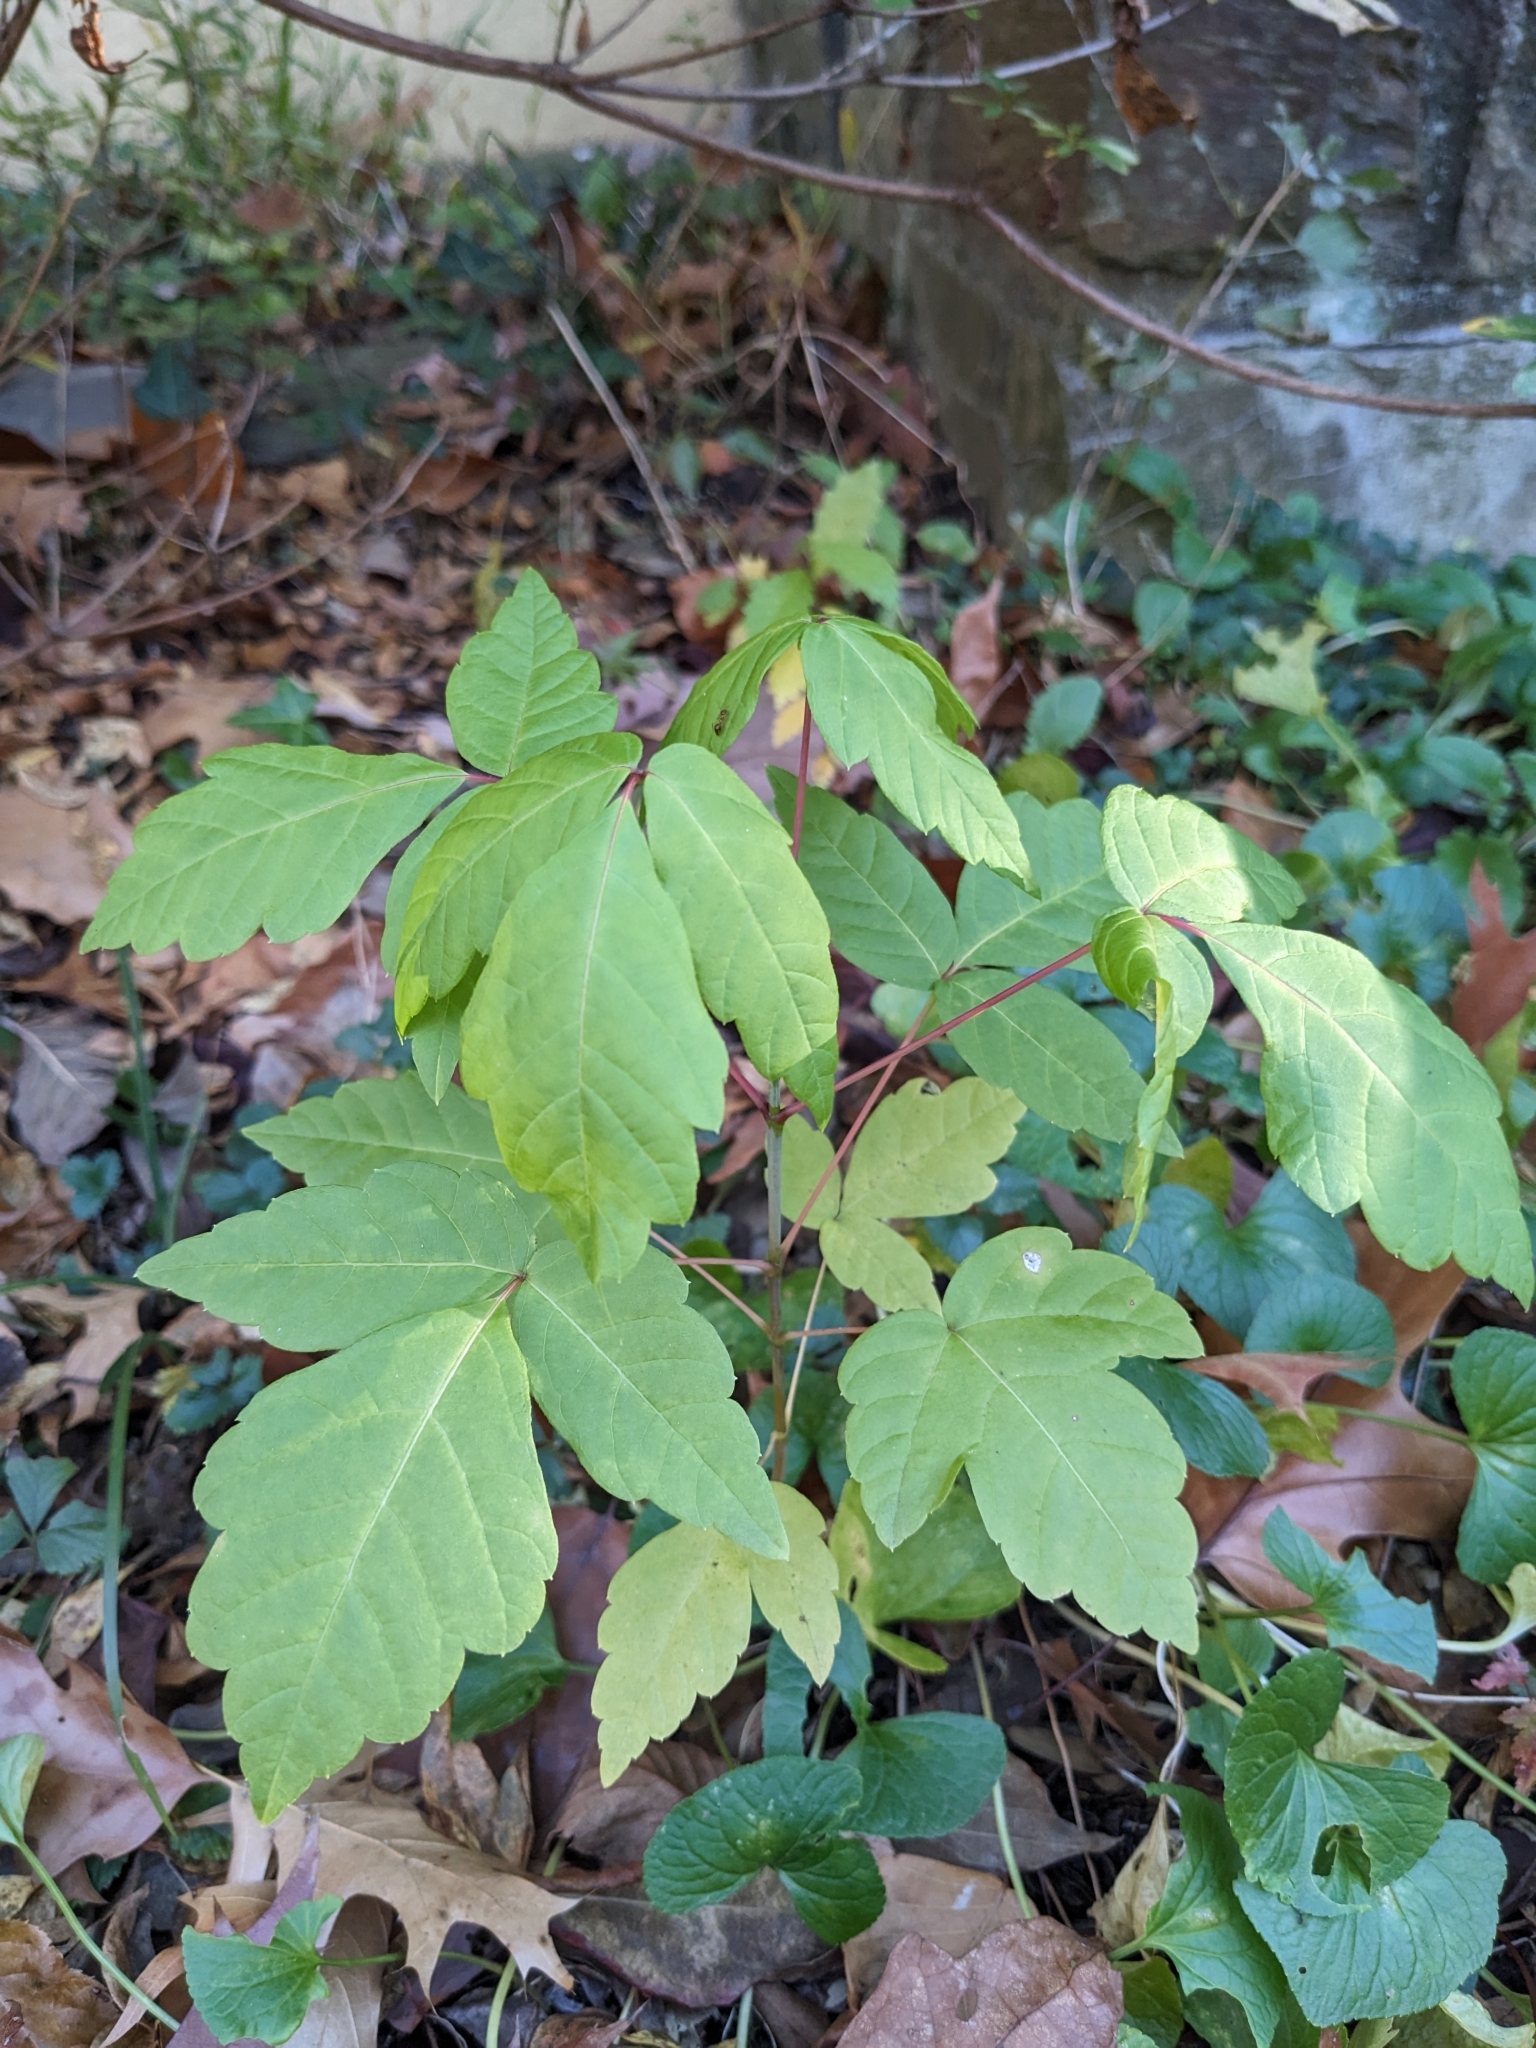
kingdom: Plantae
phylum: Tracheophyta
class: Magnoliopsida
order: Sapindales
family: Sapindaceae
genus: Acer
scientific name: Acer negundo
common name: Ashleaf maple
